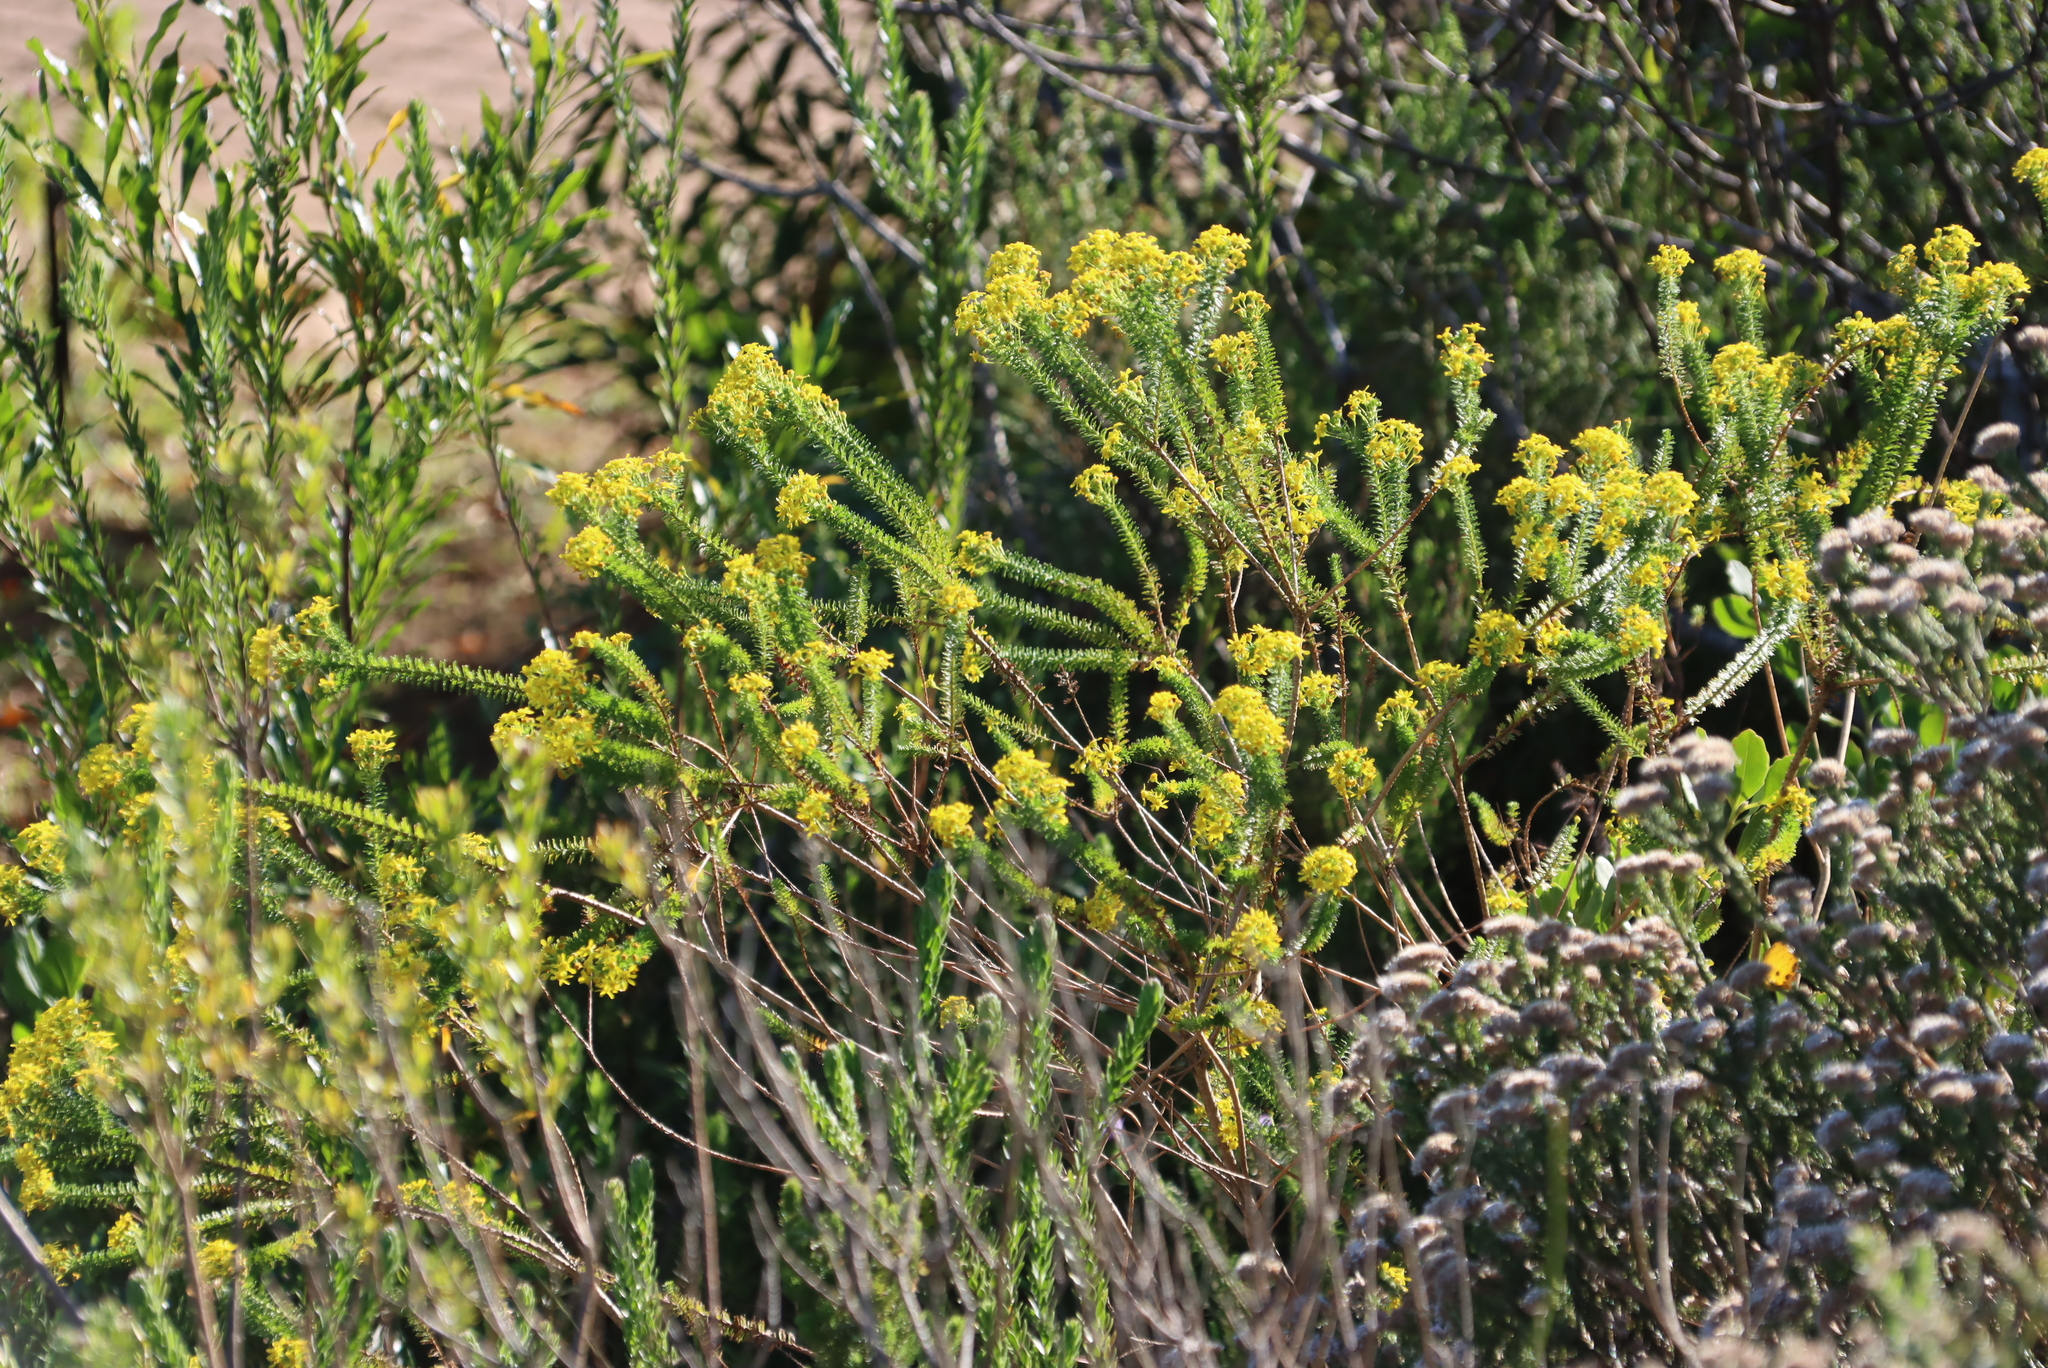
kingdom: Plantae
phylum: Tracheophyta
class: Magnoliopsida
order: Asterales
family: Asteraceae
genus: Euryops
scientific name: Euryops virgineus
